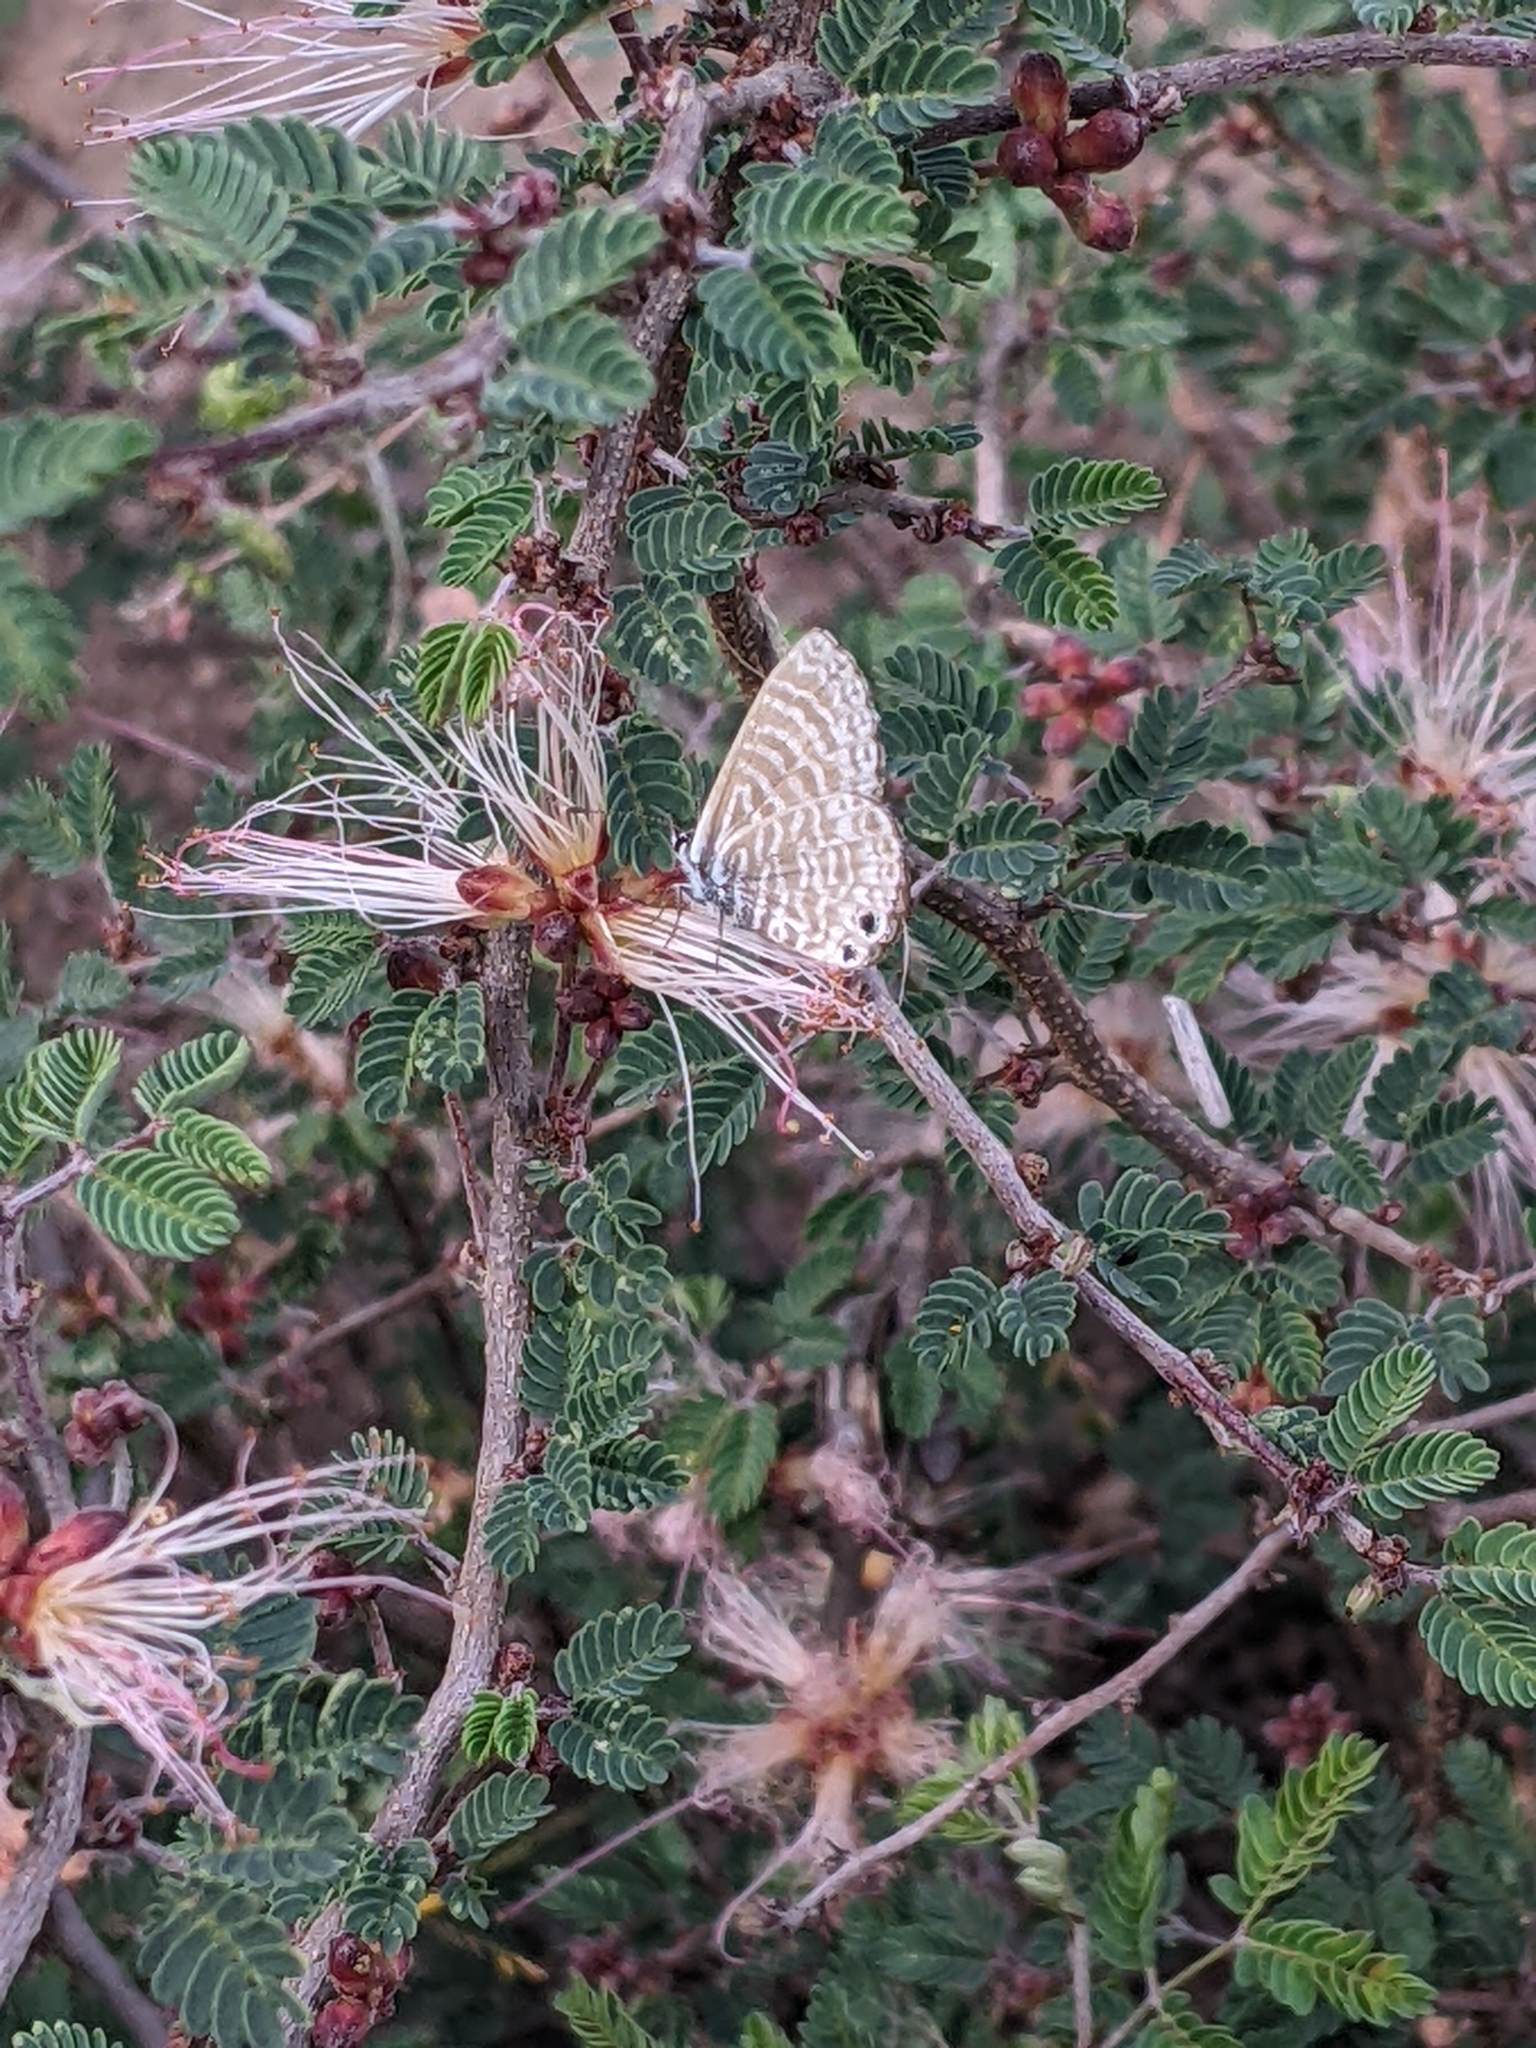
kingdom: Animalia
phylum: Arthropoda
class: Insecta
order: Lepidoptera
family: Lycaenidae
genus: Leptotes
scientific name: Leptotes marina
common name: Marine blue
